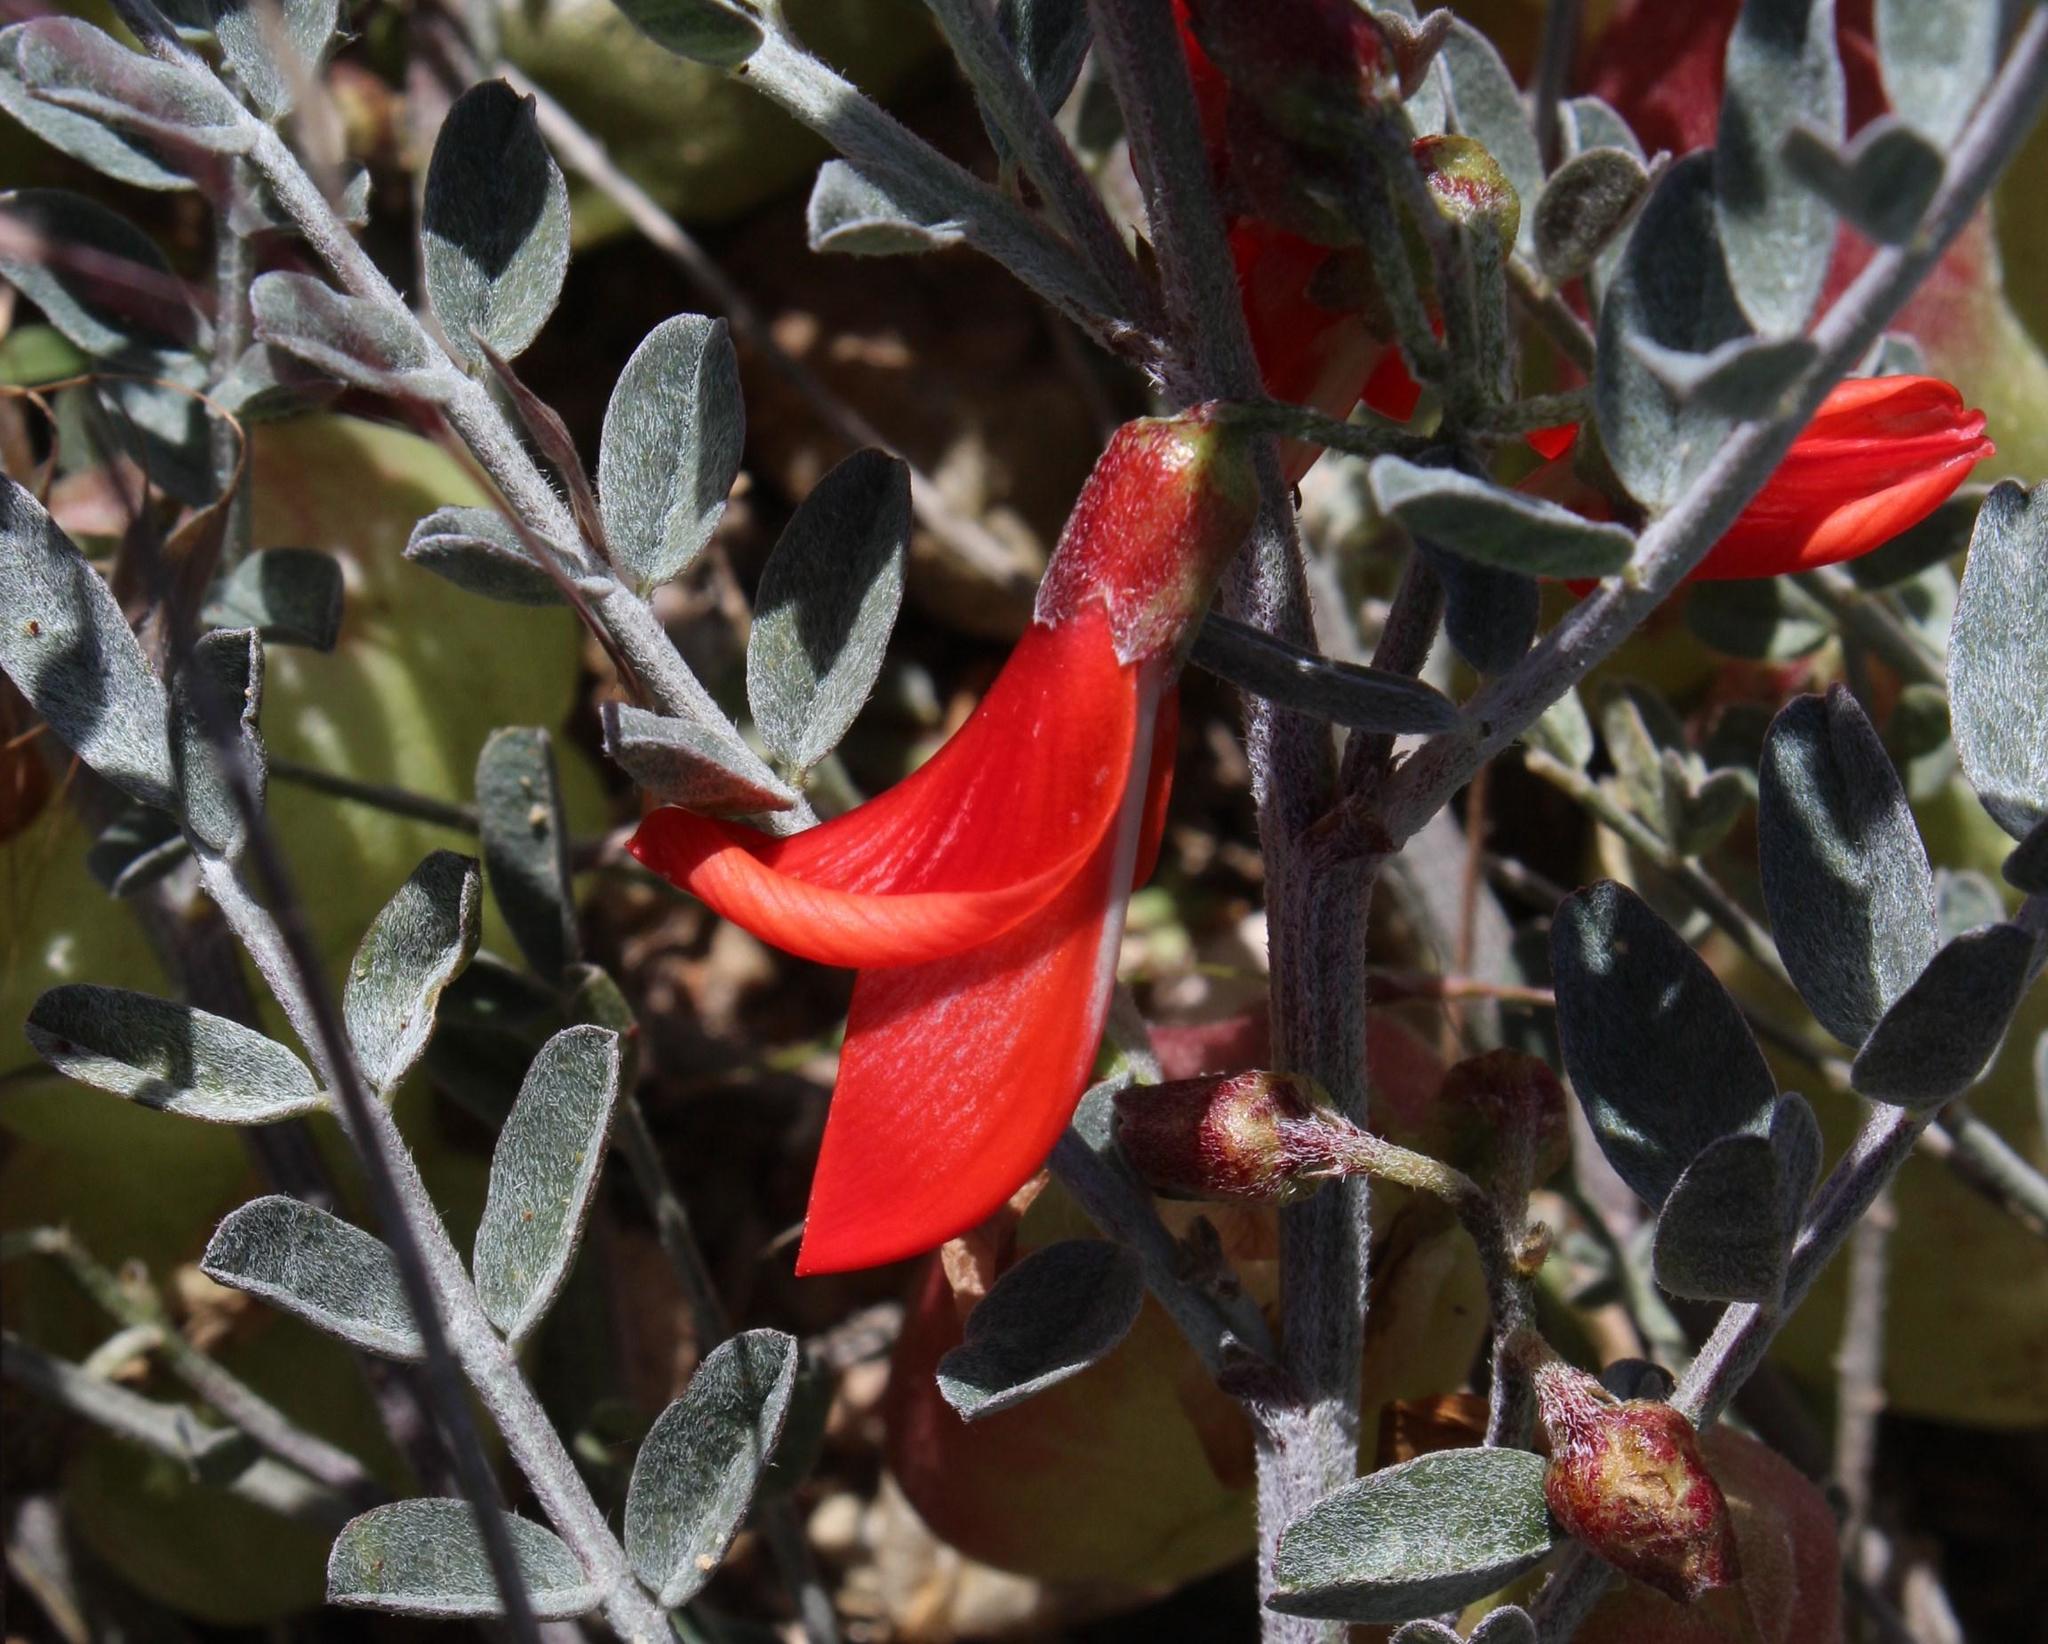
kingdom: Plantae
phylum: Tracheophyta
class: Magnoliopsida
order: Fabales
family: Fabaceae
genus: Lessertia
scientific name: Lessertia frutescens
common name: Balloon-pea
